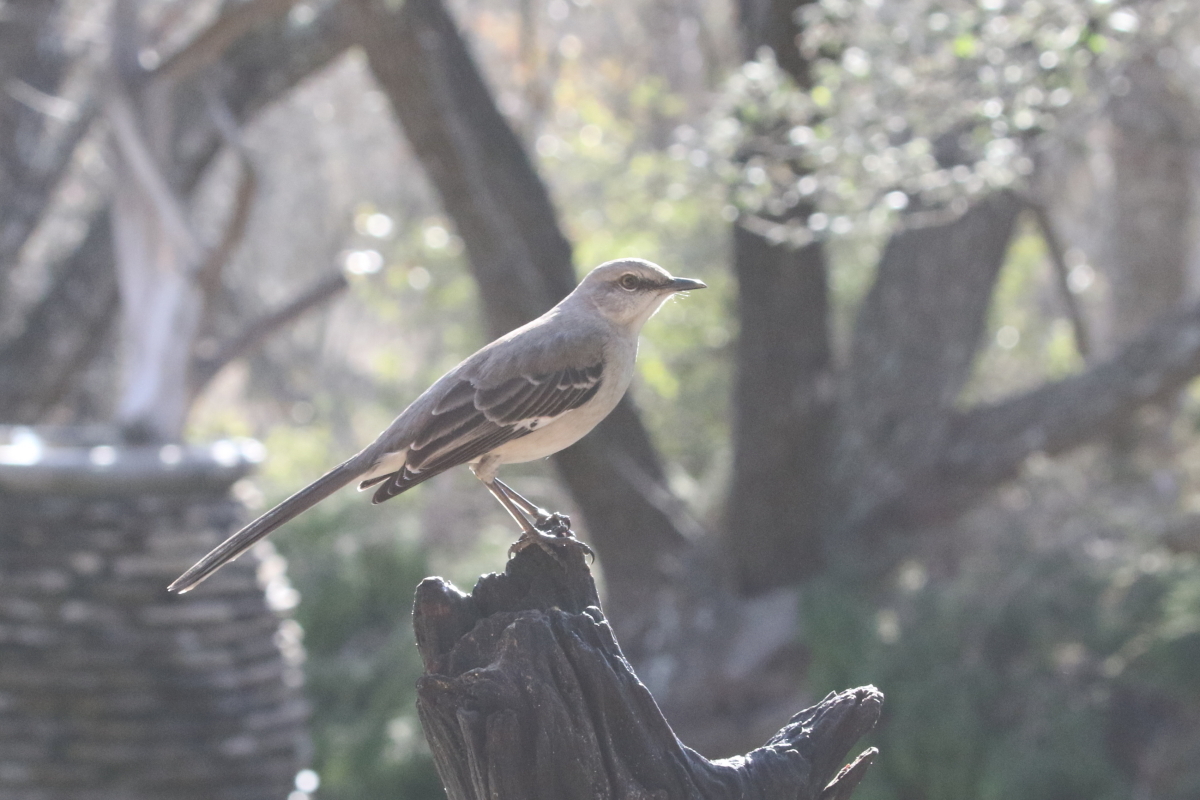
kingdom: Animalia
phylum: Chordata
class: Aves
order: Passeriformes
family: Mimidae
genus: Mimus
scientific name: Mimus polyglottos
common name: Northern mockingbird
